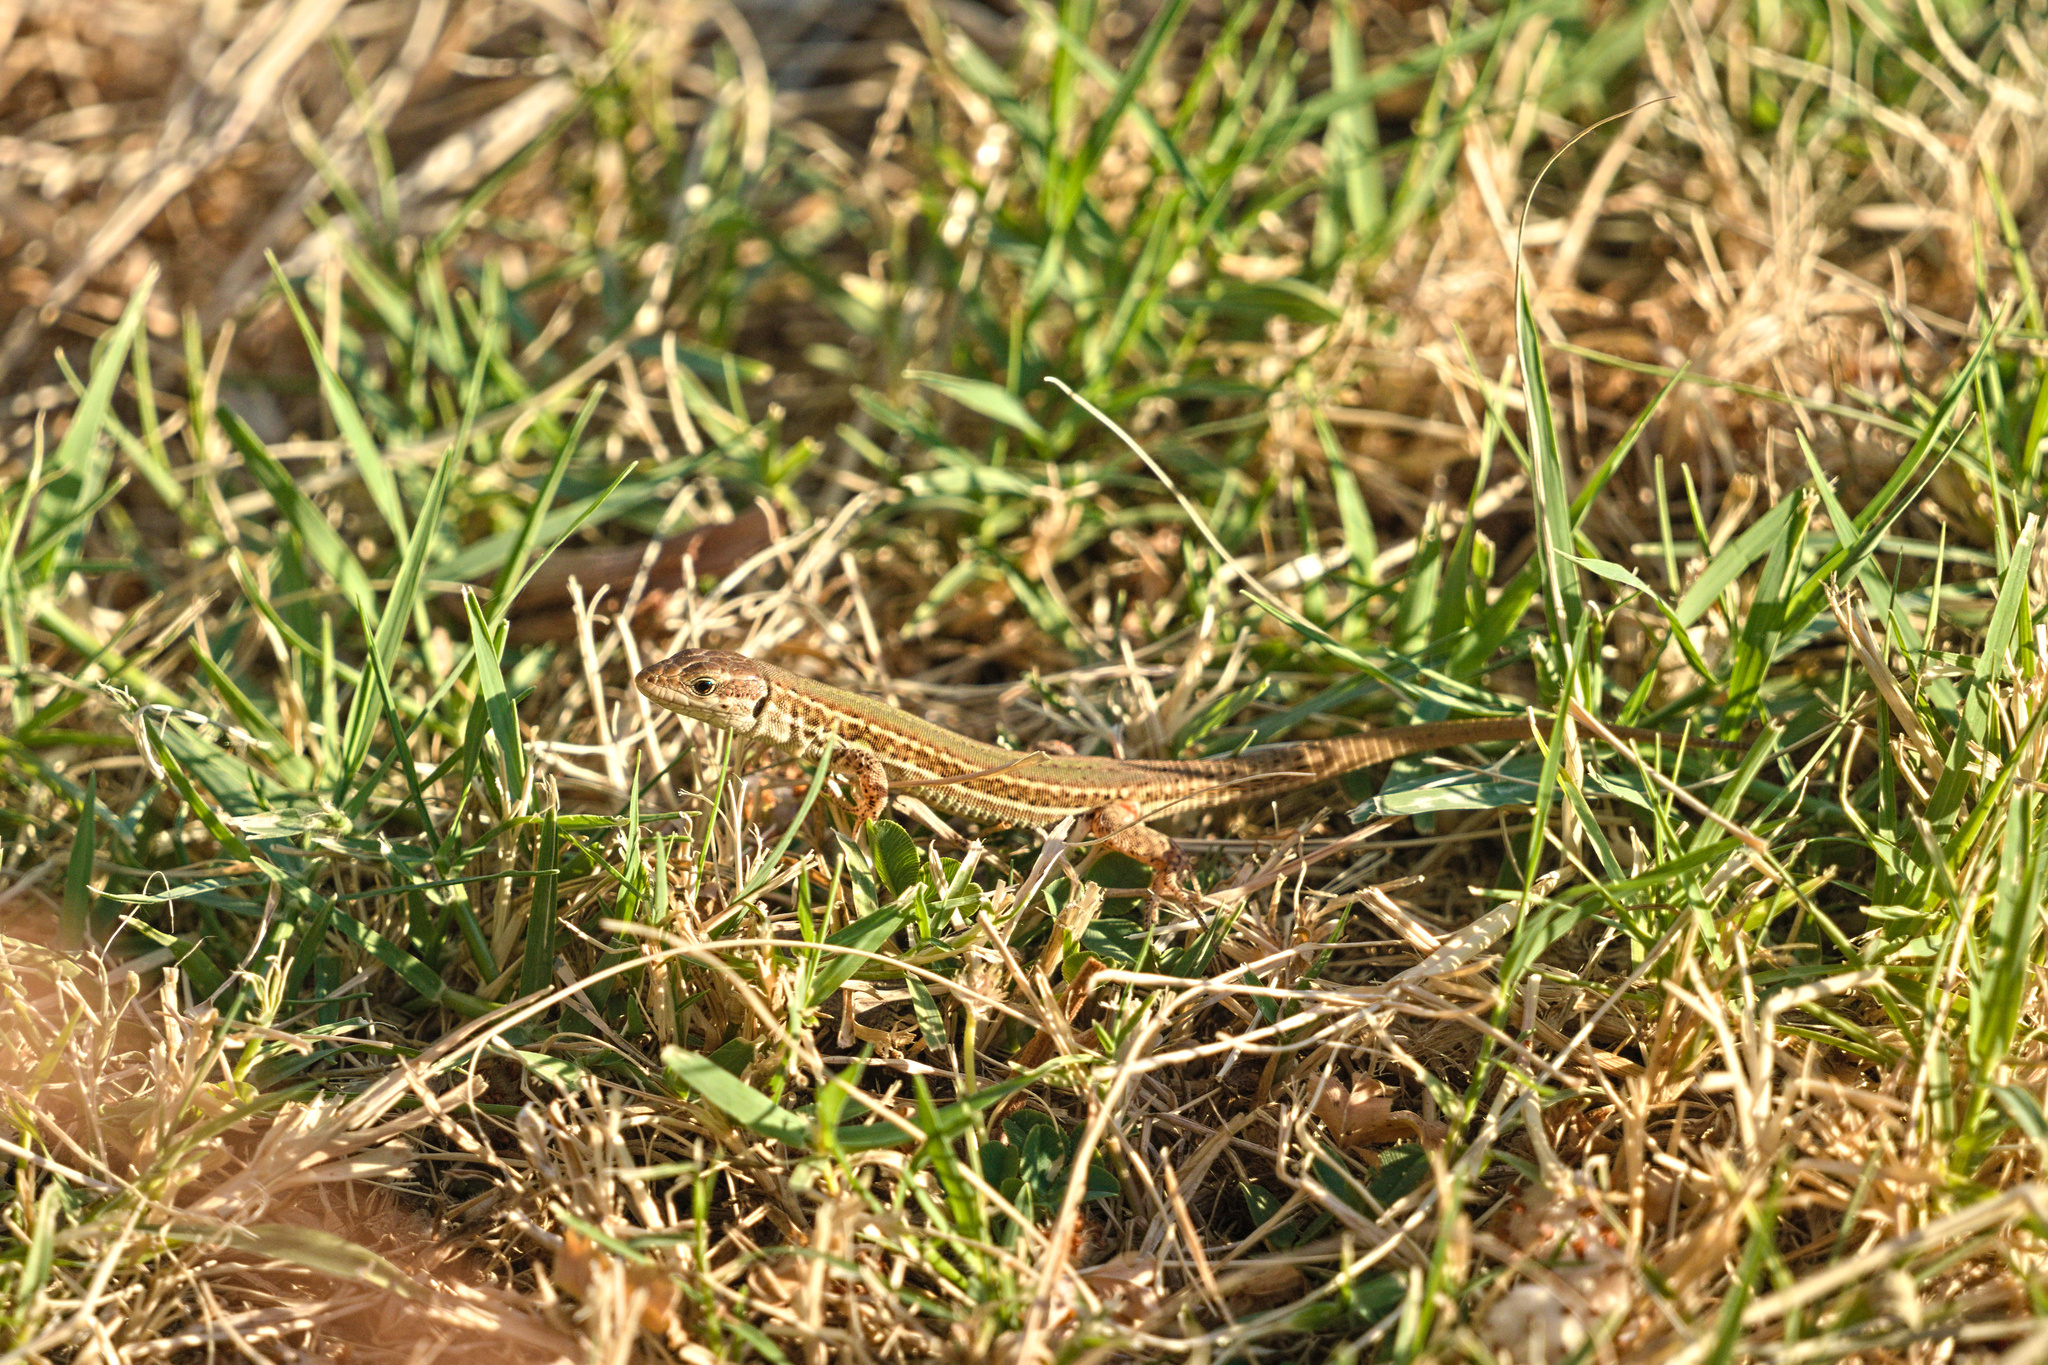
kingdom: Animalia
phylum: Chordata
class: Squamata
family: Lacertidae
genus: Podarcis
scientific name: Podarcis ionicus
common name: Ionian wall lizard
